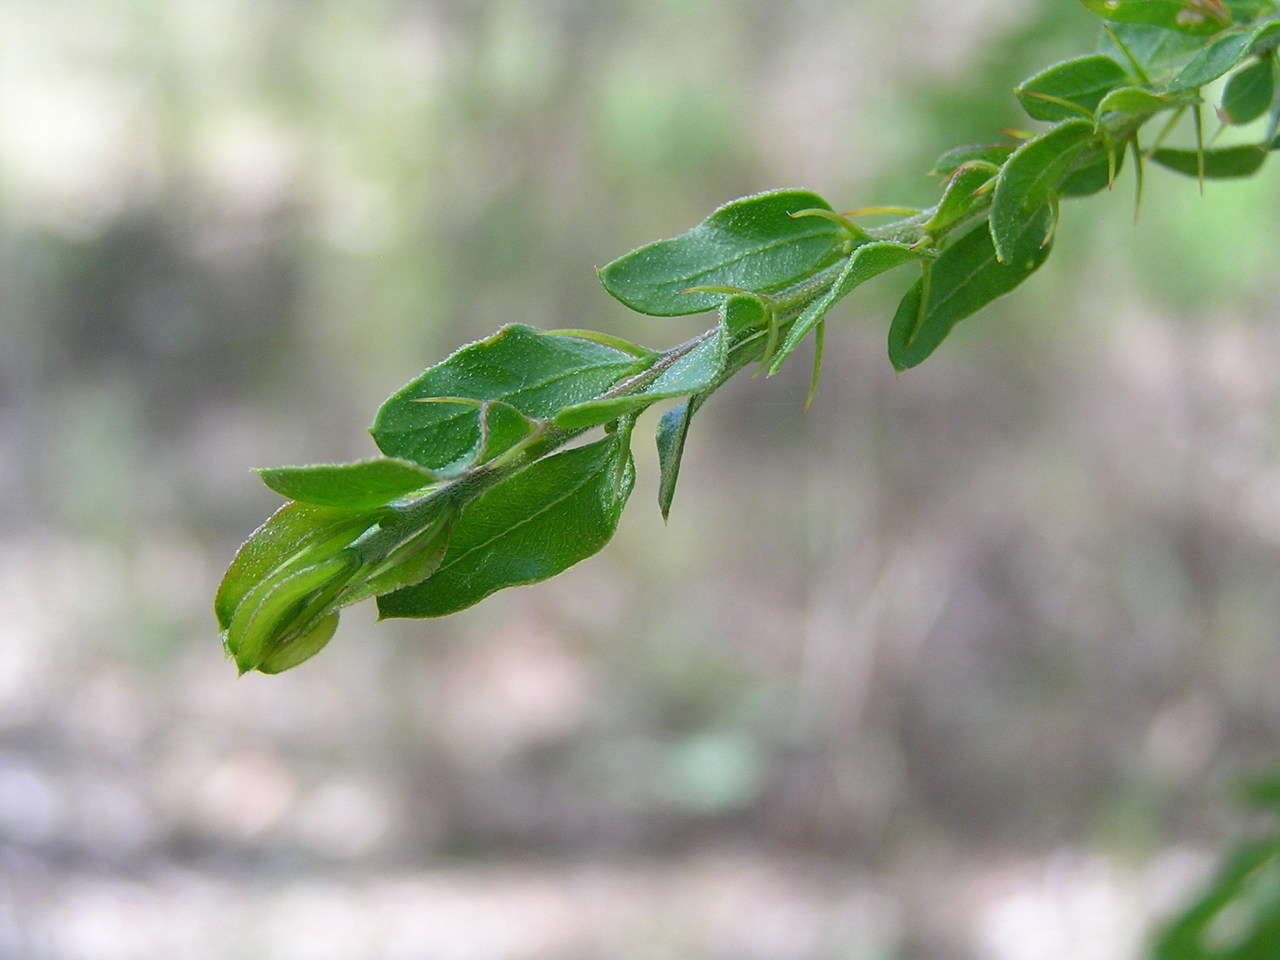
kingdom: Plantae
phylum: Tracheophyta
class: Magnoliopsida
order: Fabales
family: Fabaceae
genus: Acacia
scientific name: Acacia paradoxa
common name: Paradox acacia
